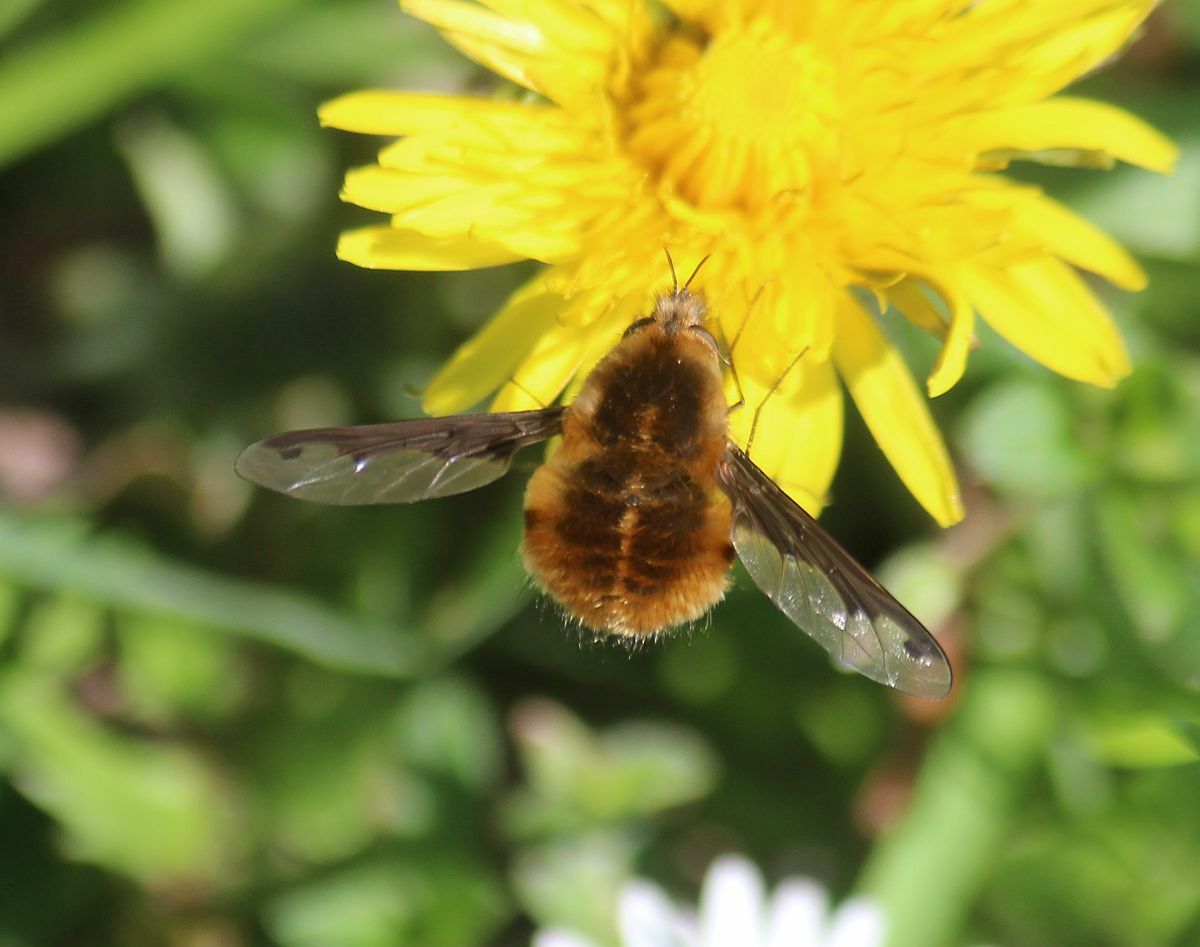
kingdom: Animalia
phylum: Arthropoda
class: Insecta
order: Diptera
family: Bombyliidae
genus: Bombylius
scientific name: Bombylius major
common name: Bee fly
